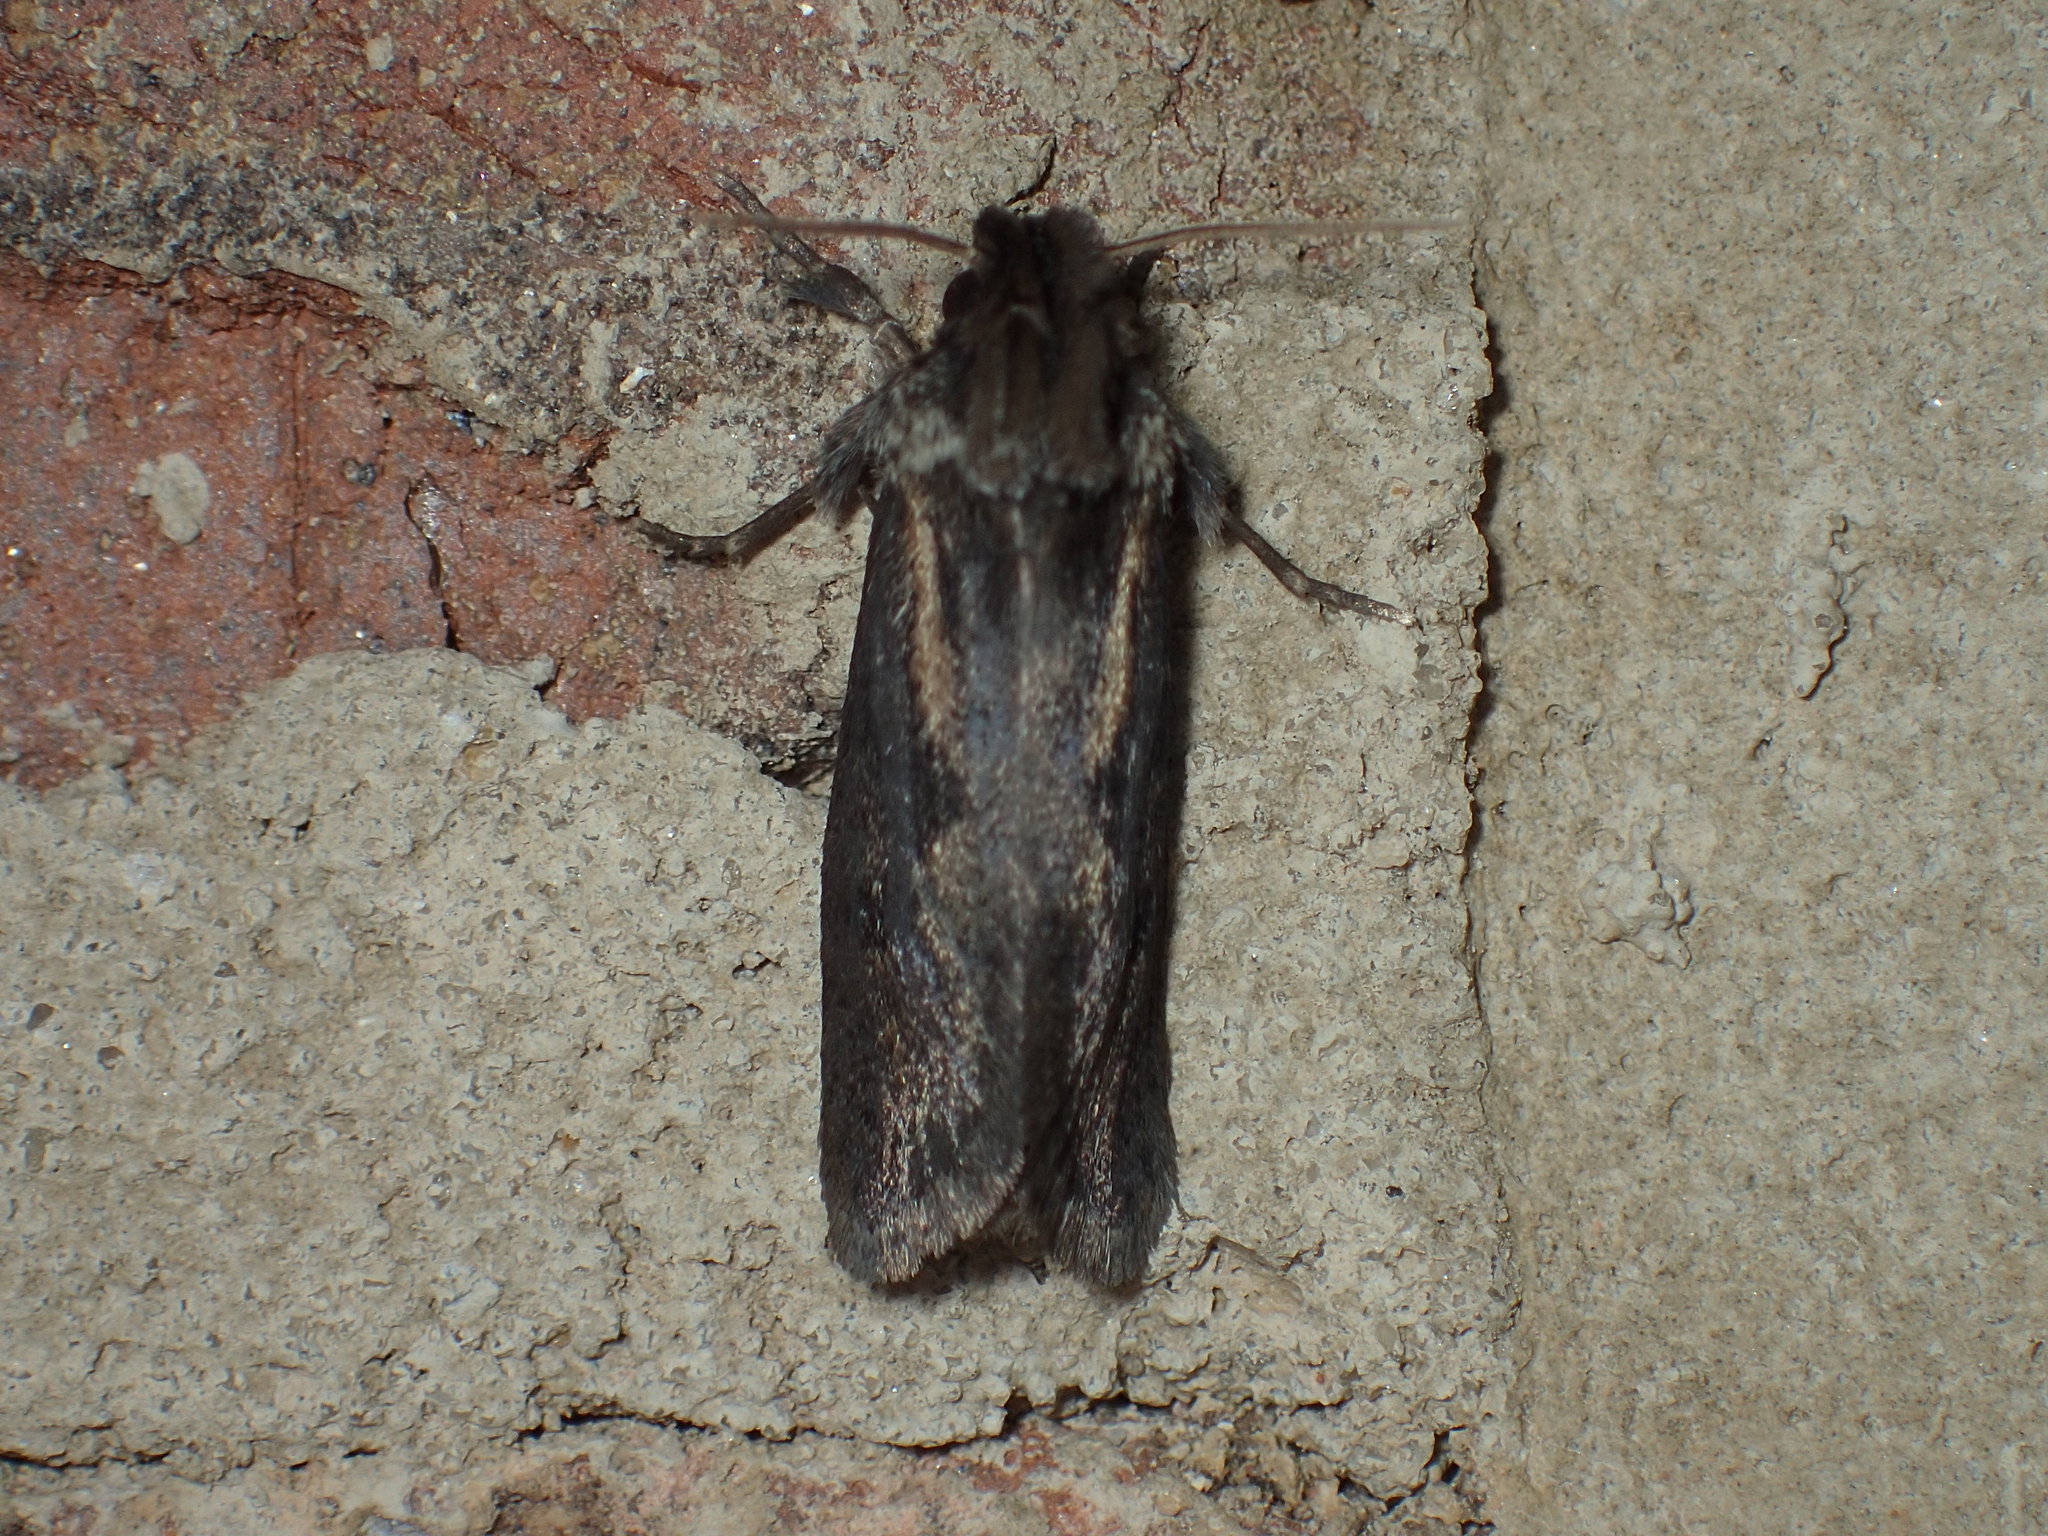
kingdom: Animalia
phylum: Arthropoda
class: Insecta
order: Lepidoptera
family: Tineidae
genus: Acrolophus
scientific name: Acrolophus popeanella
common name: Clemens' grass tubeworm moth
